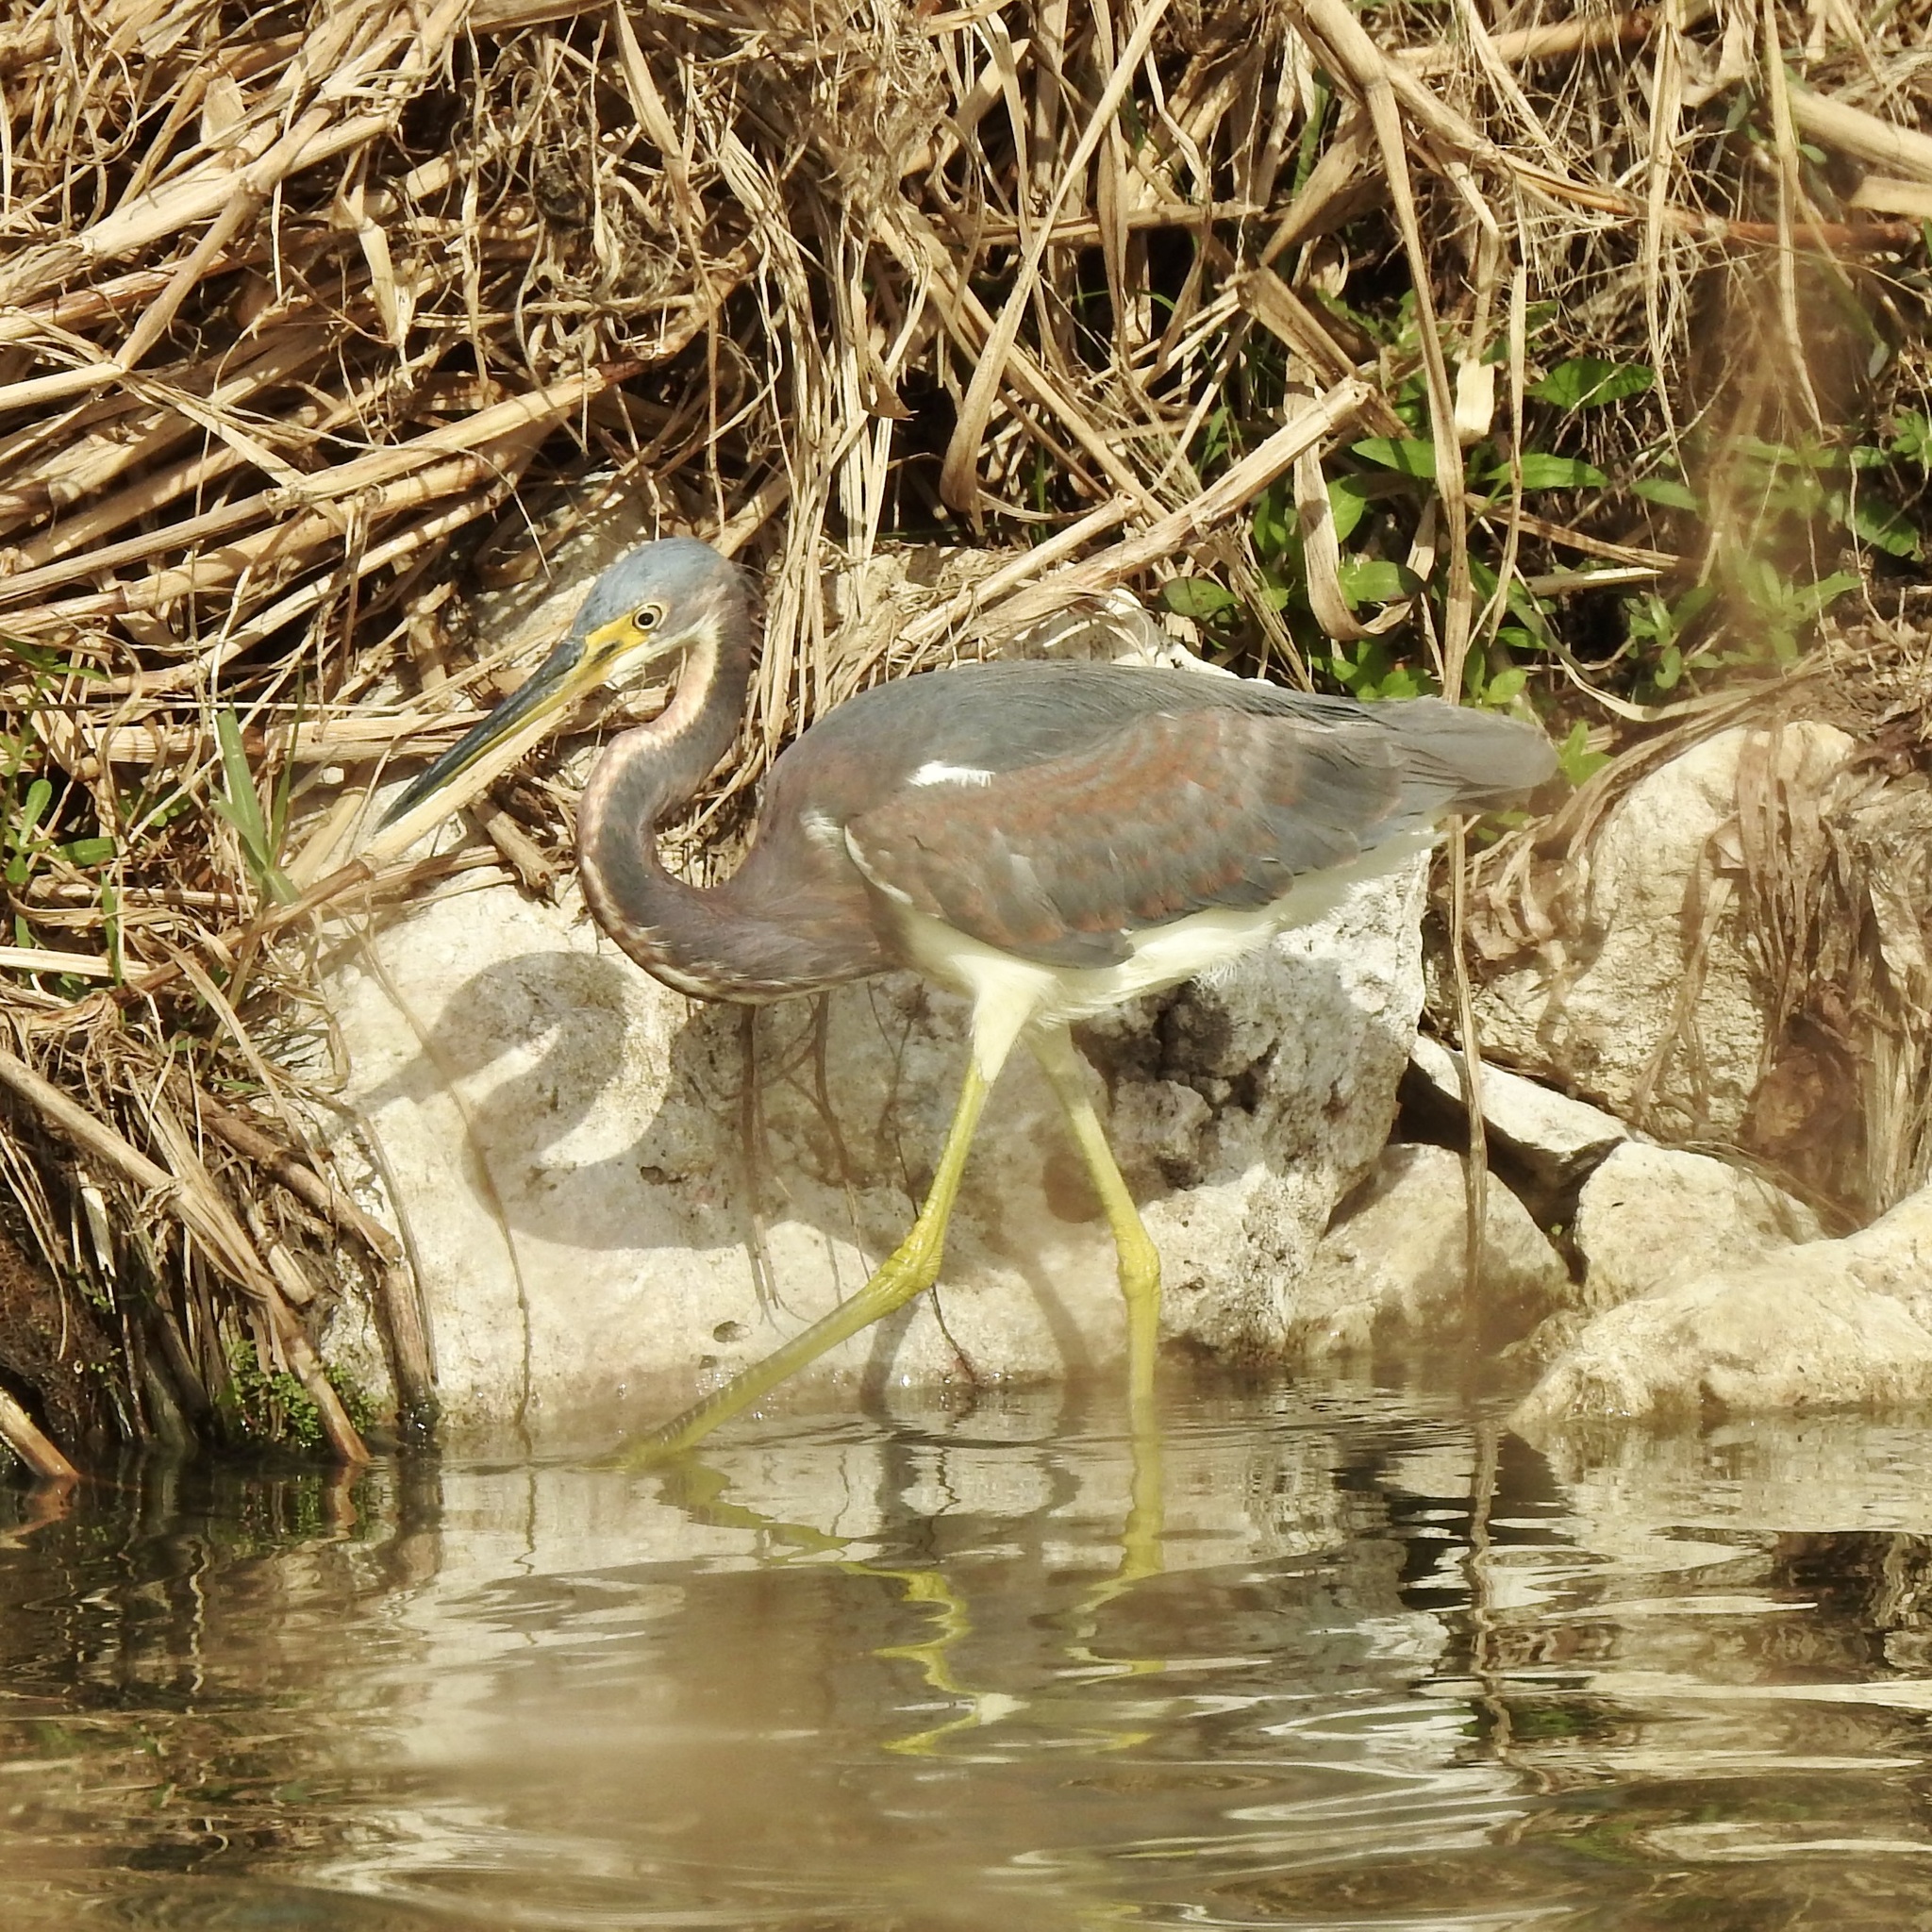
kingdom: Animalia
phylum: Chordata
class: Aves
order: Pelecaniformes
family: Ardeidae
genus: Egretta
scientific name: Egretta tricolor
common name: Tricolored heron
